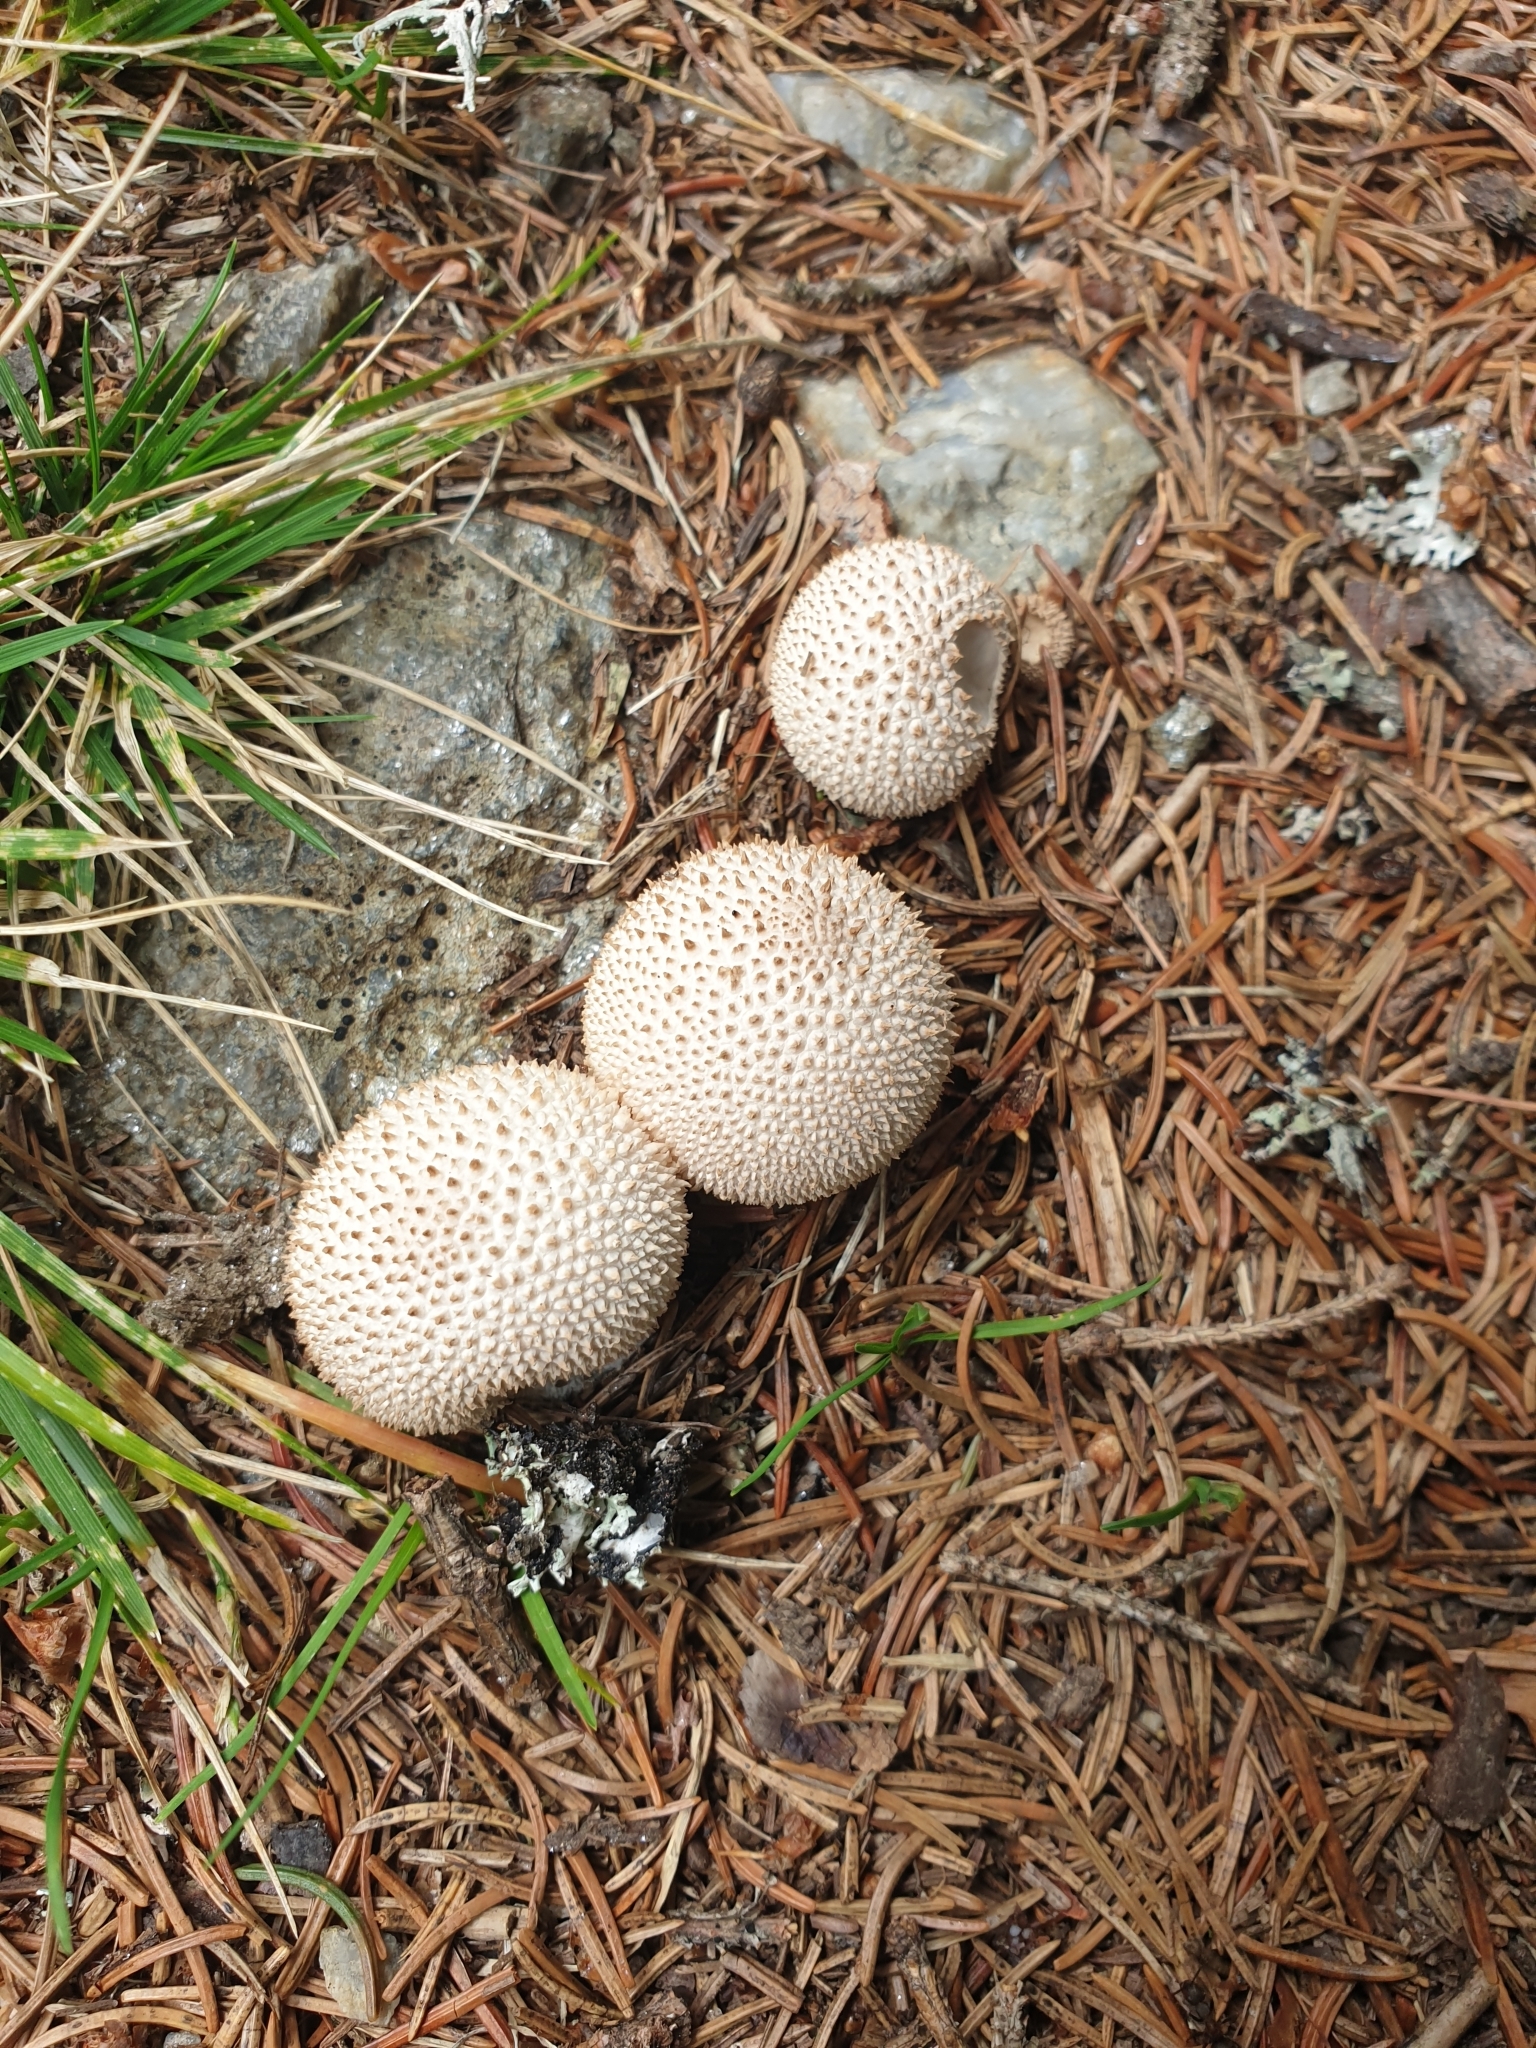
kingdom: Fungi
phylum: Basidiomycota
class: Agaricomycetes
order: Agaricales
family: Lycoperdaceae
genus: Lycoperdon
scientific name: Lycoperdon perlatum
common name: Common puffball
